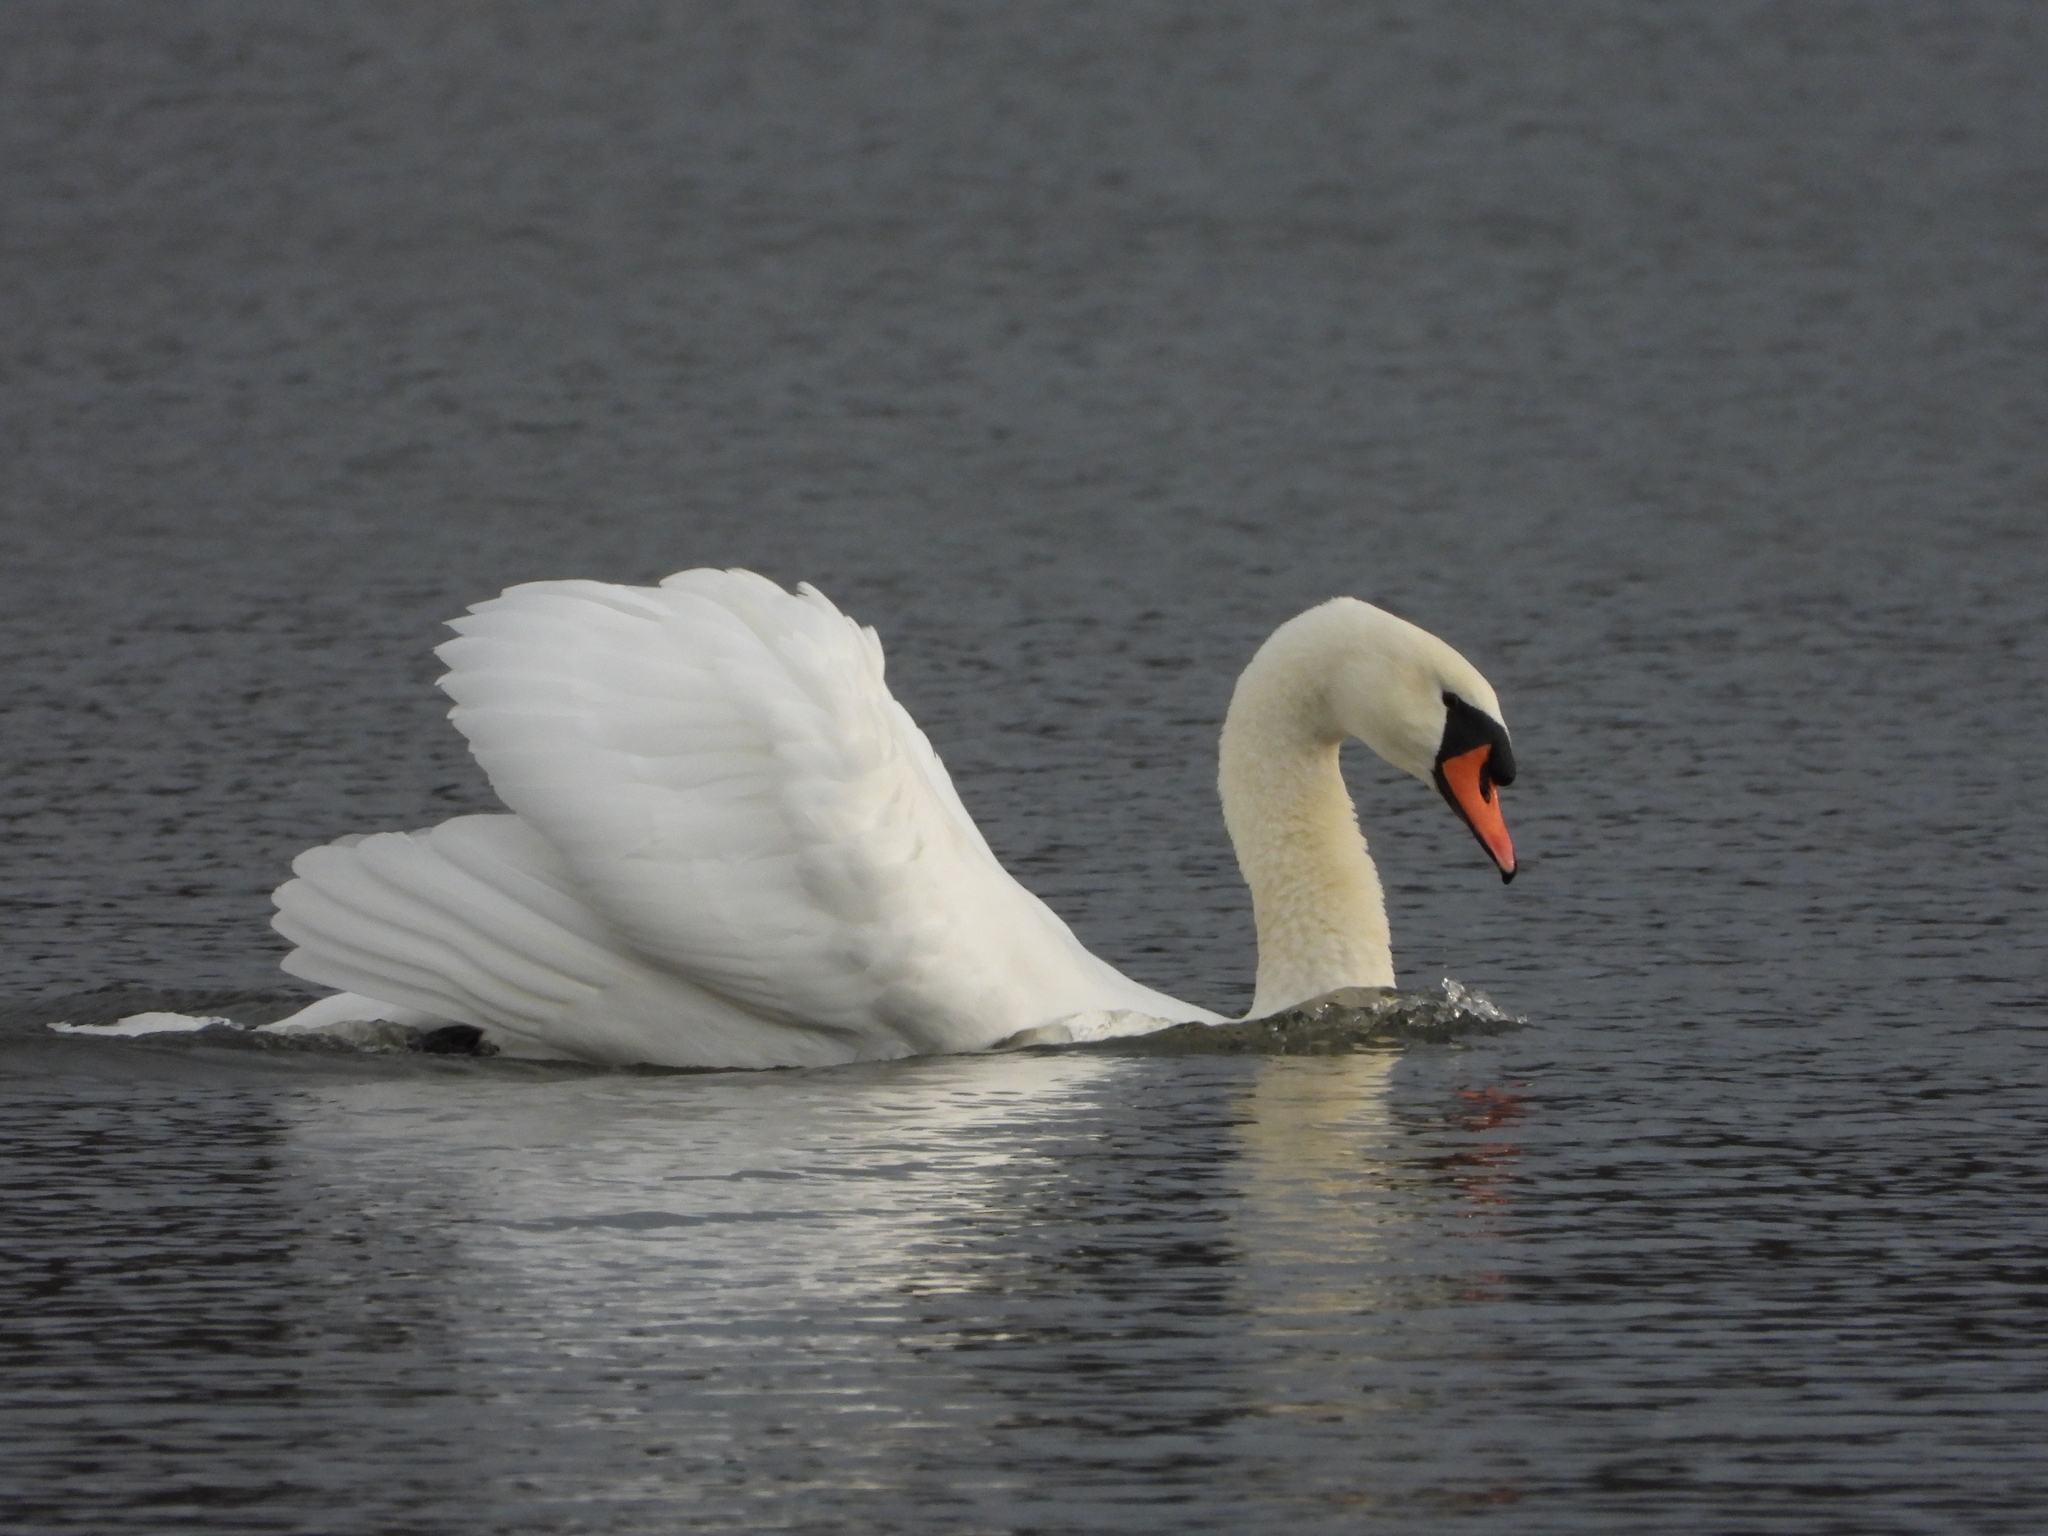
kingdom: Animalia
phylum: Chordata
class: Aves
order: Anseriformes
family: Anatidae
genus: Cygnus
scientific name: Cygnus olor
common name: Mute swan
